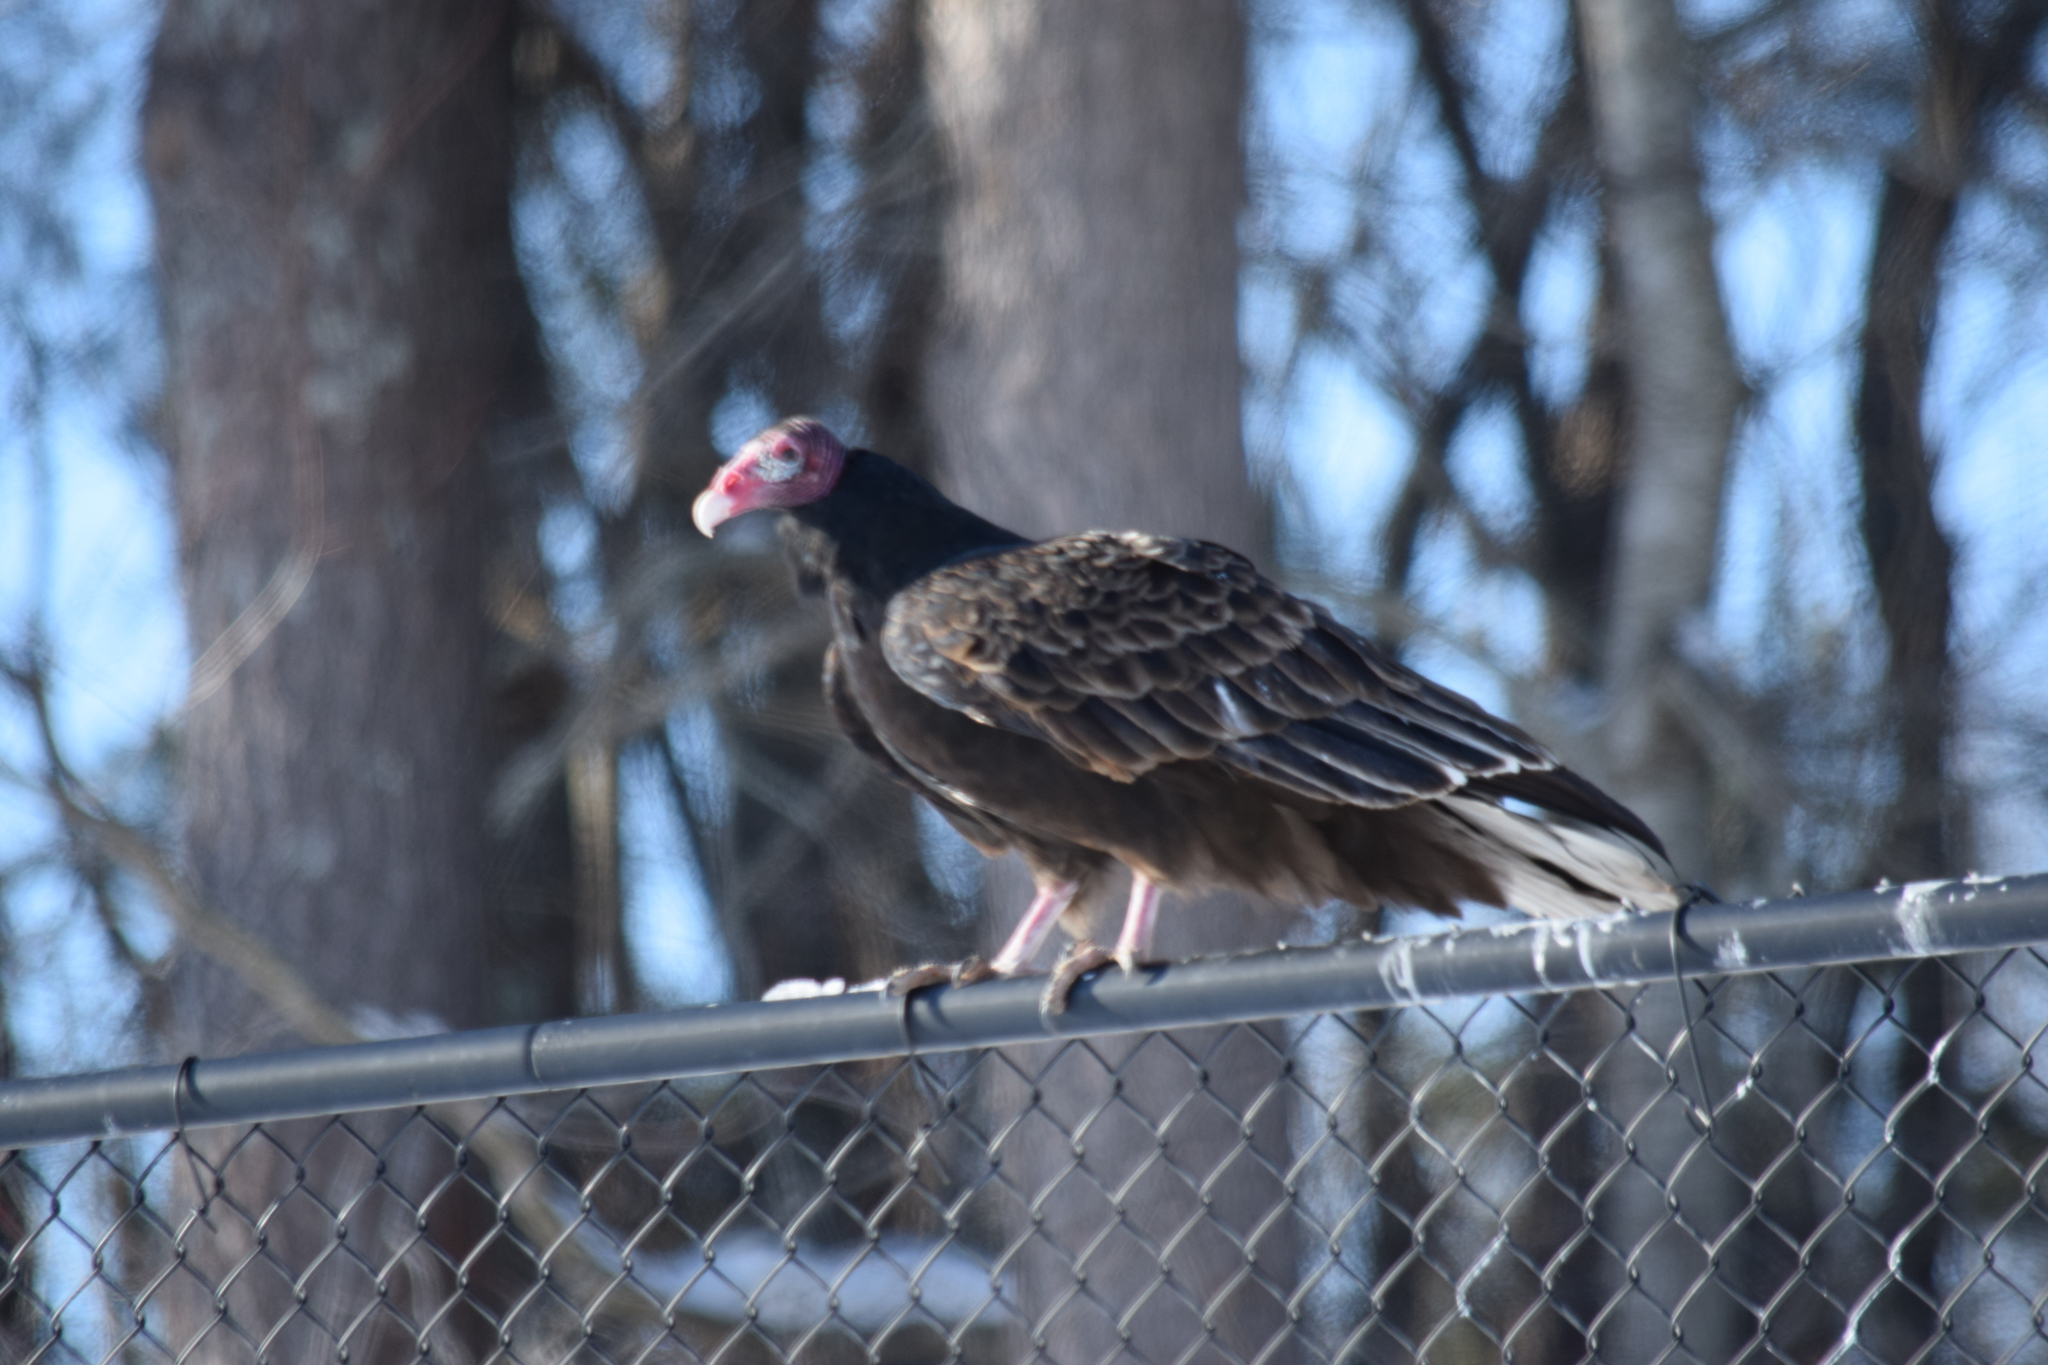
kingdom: Animalia
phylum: Chordata
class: Aves
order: Accipitriformes
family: Cathartidae
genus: Cathartes
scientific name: Cathartes aura
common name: Turkey vulture
